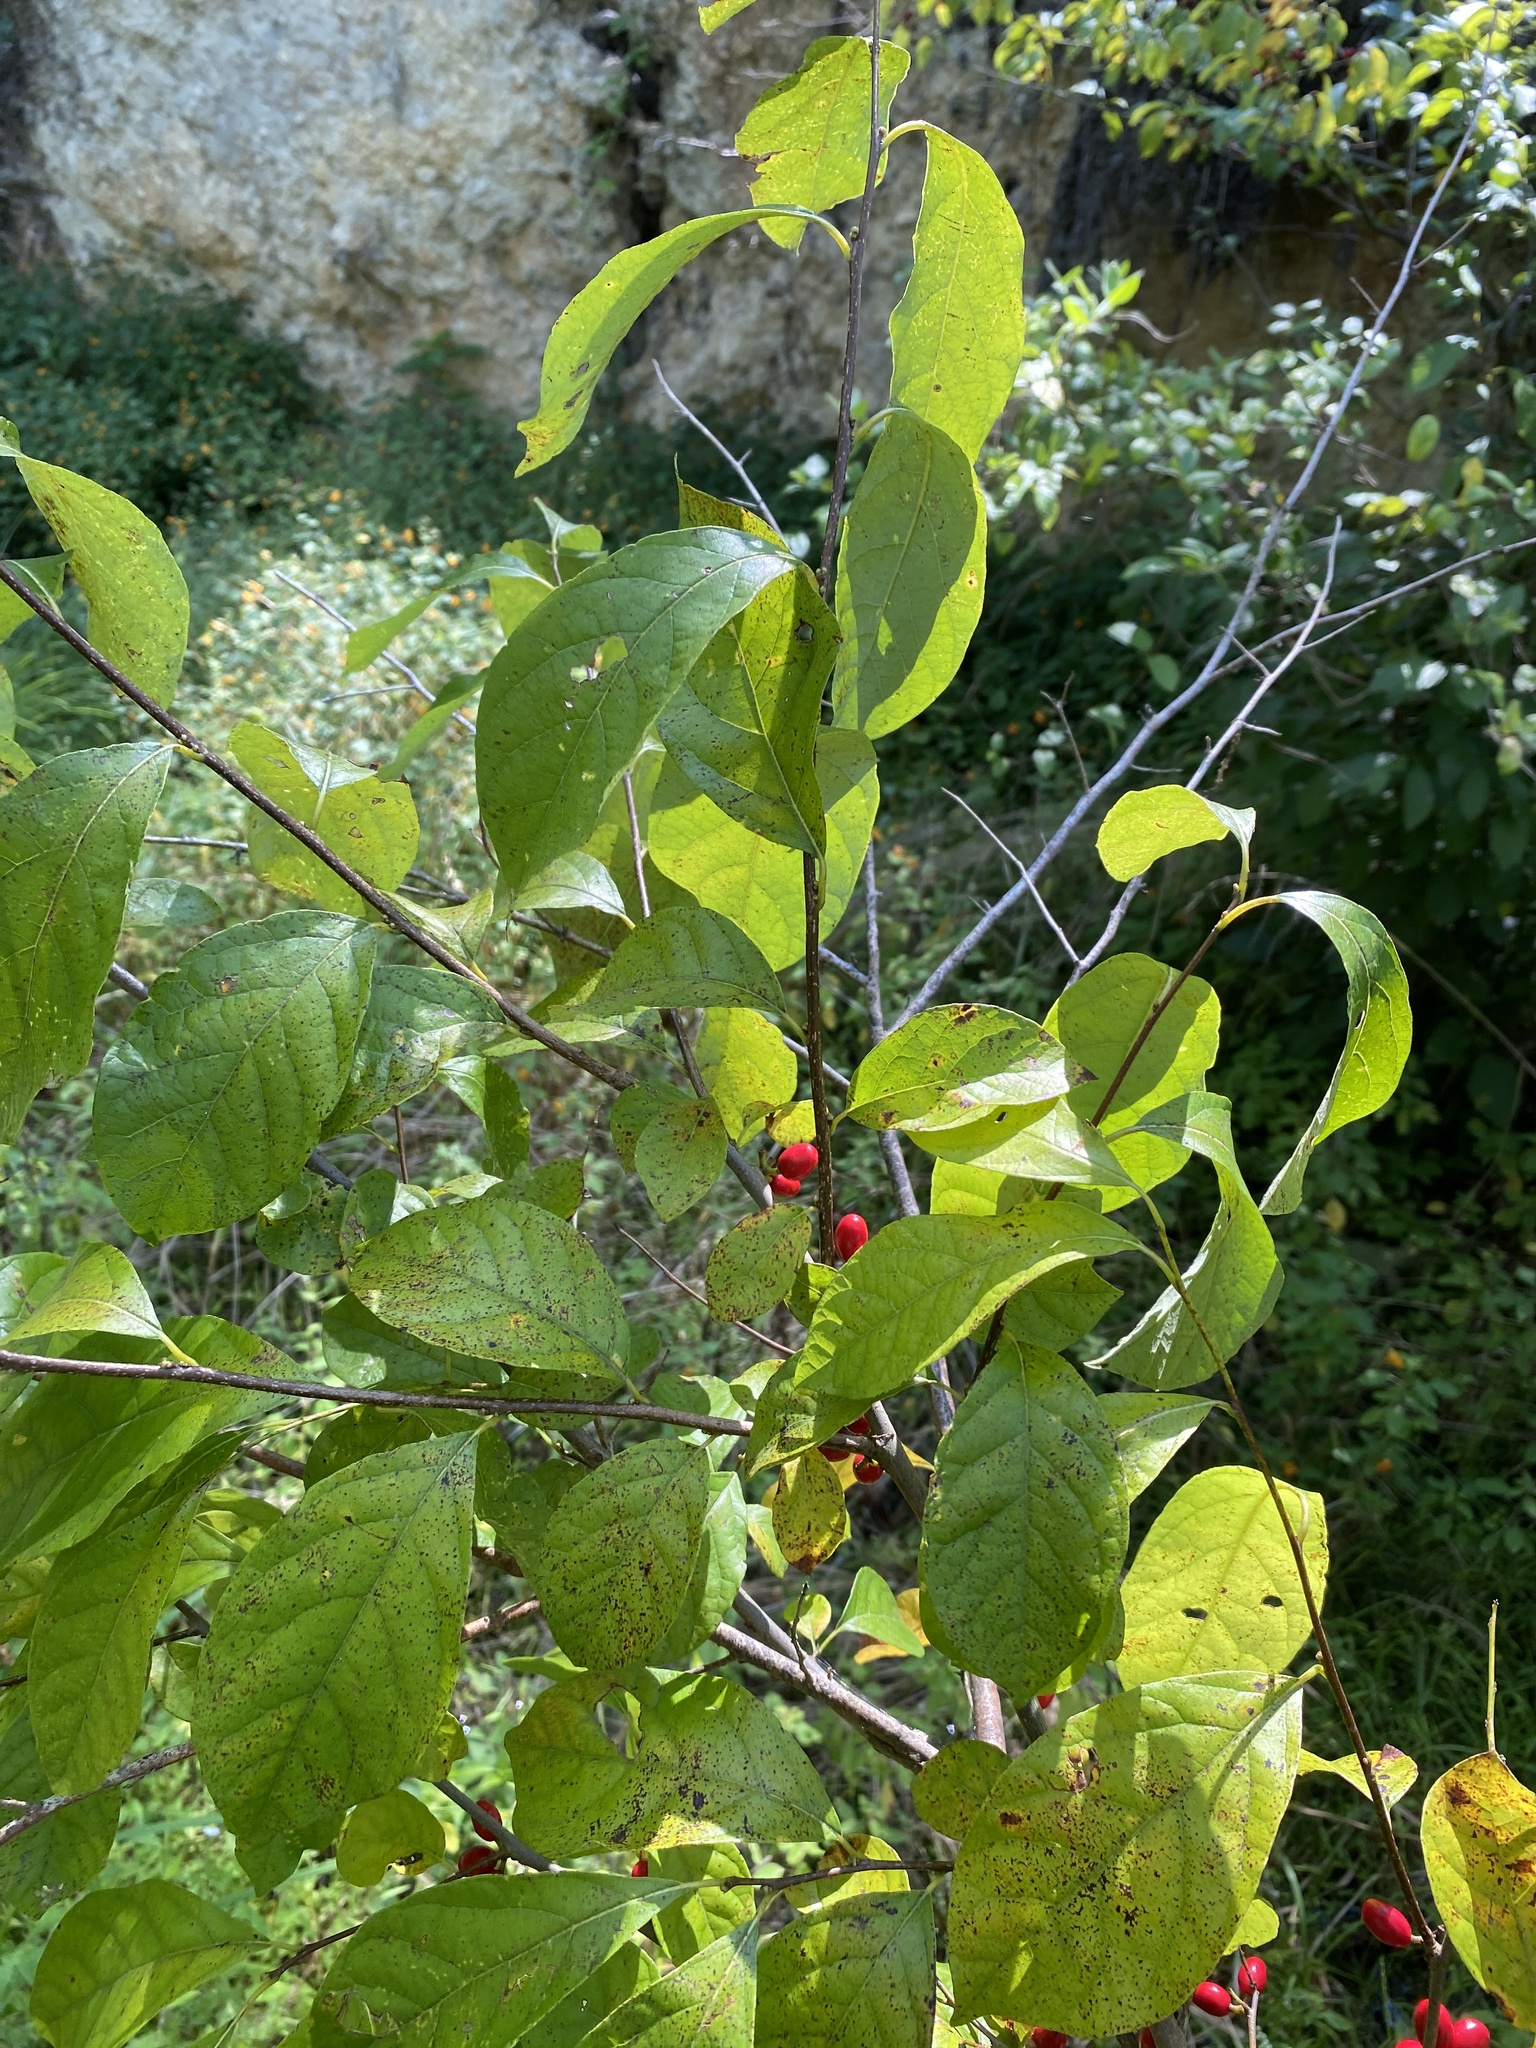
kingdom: Plantae
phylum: Tracheophyta
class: Magnoliopsida
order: Laurales
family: Lauraceae
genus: Lindera
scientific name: Lindera benzoin
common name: Spicebush
